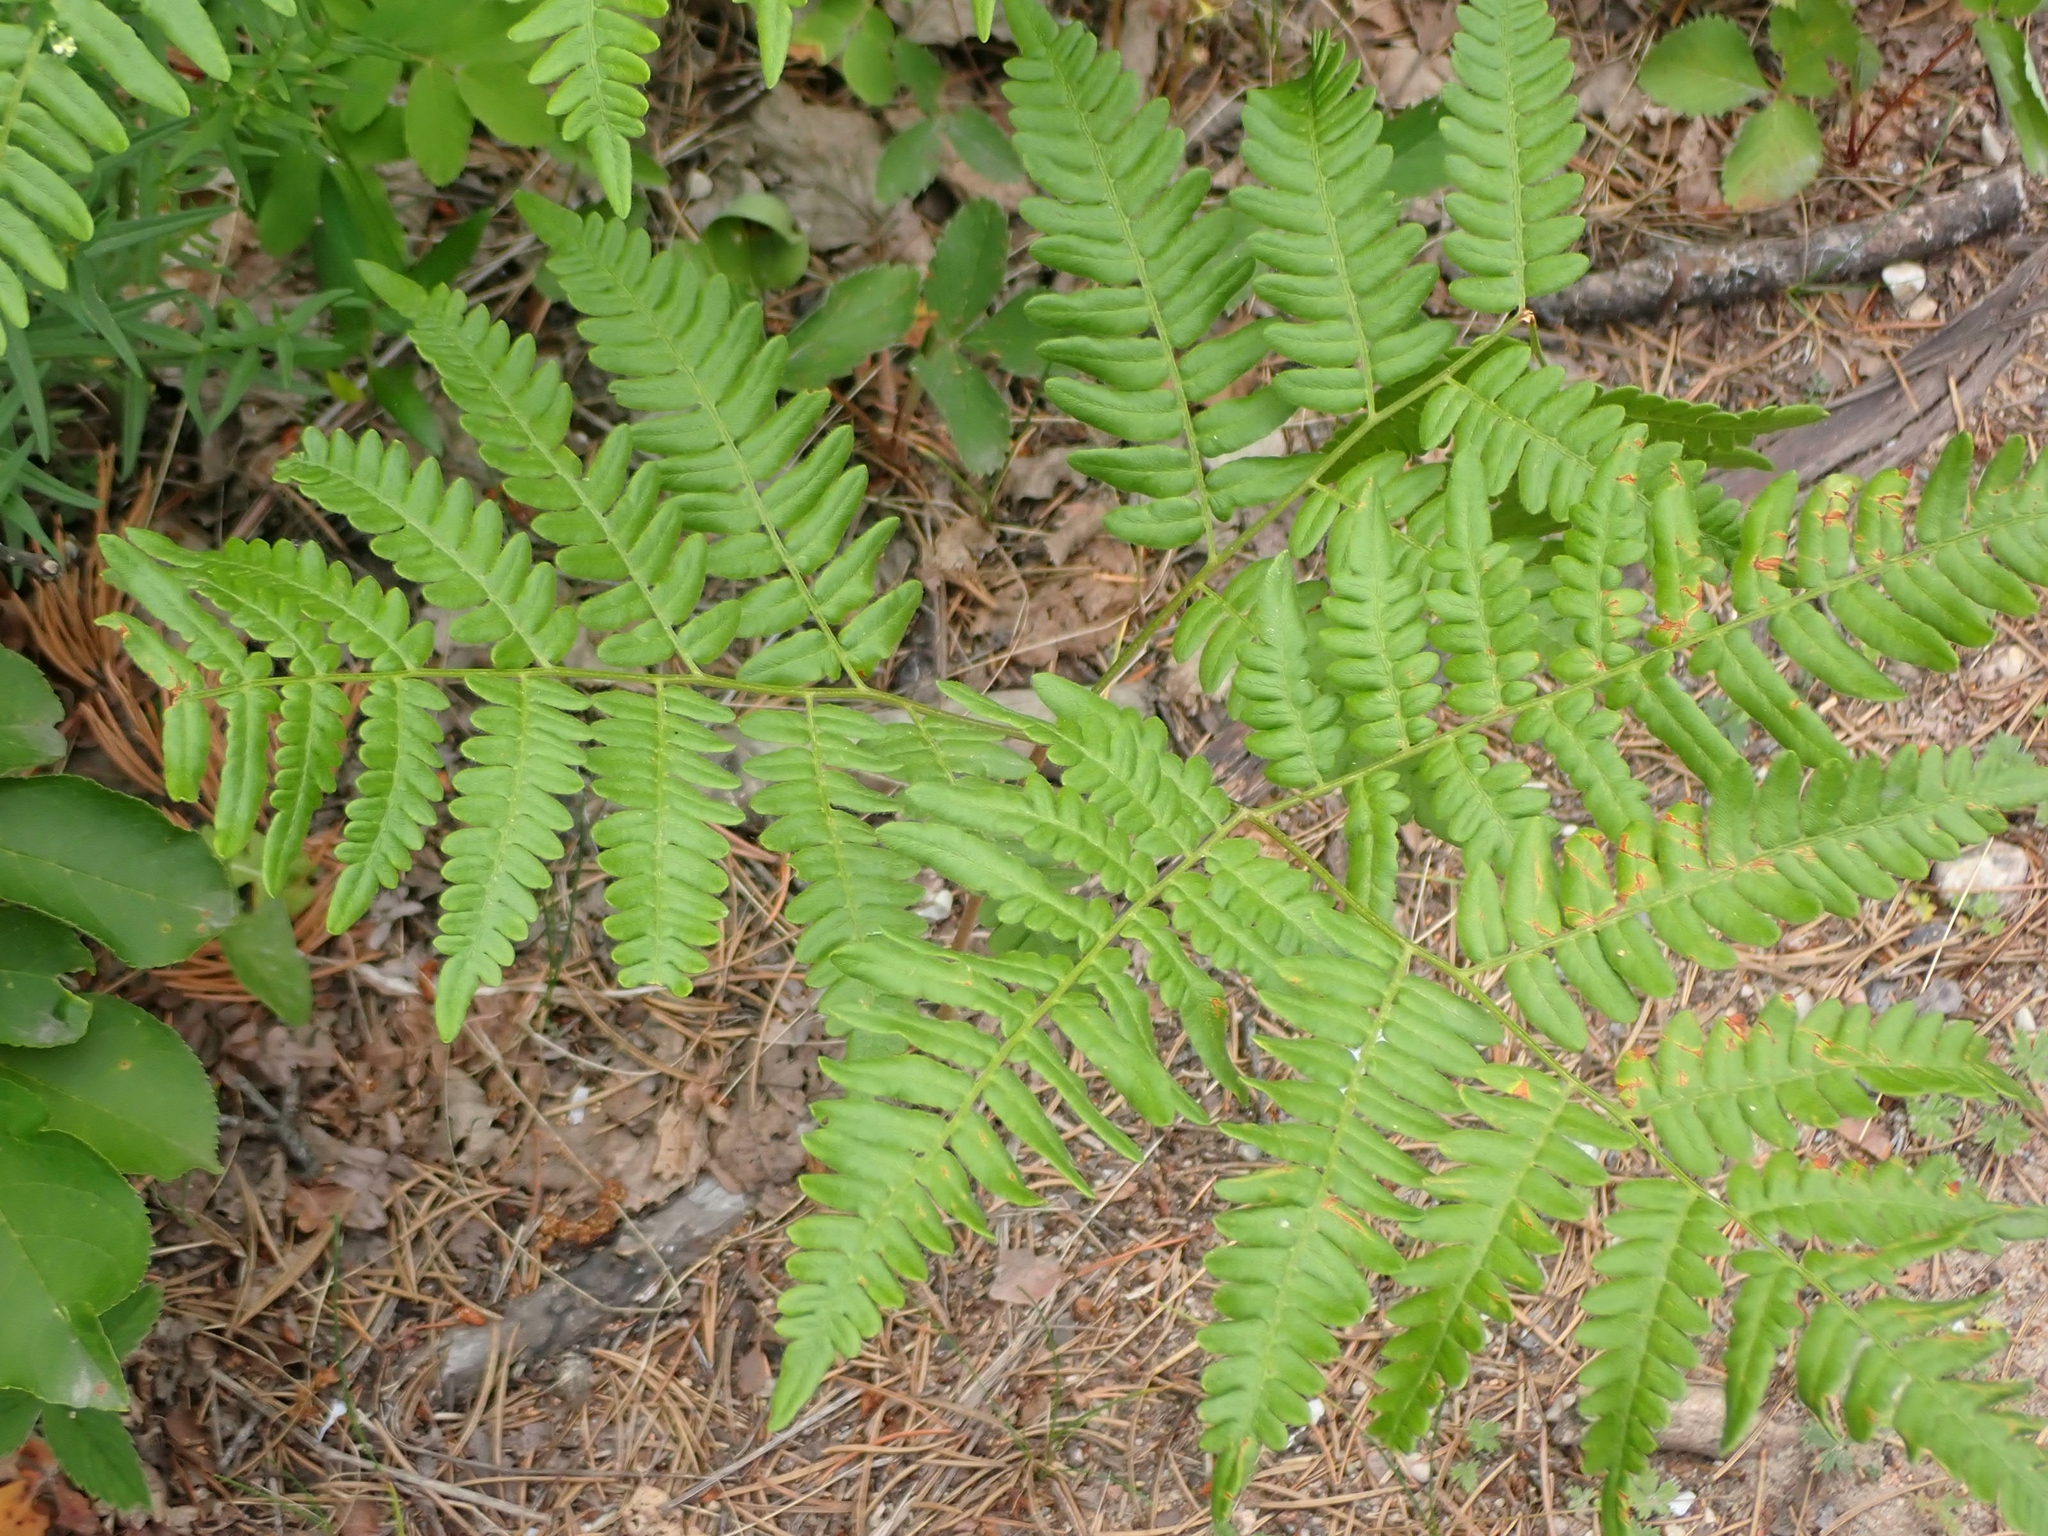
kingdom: Plantae
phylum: Tracheophyta
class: Polypodiopsida
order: Polypodiales
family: Dennstaedtiaceae
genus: Pteridium
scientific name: Pteridium aquilinum
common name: Bracken
